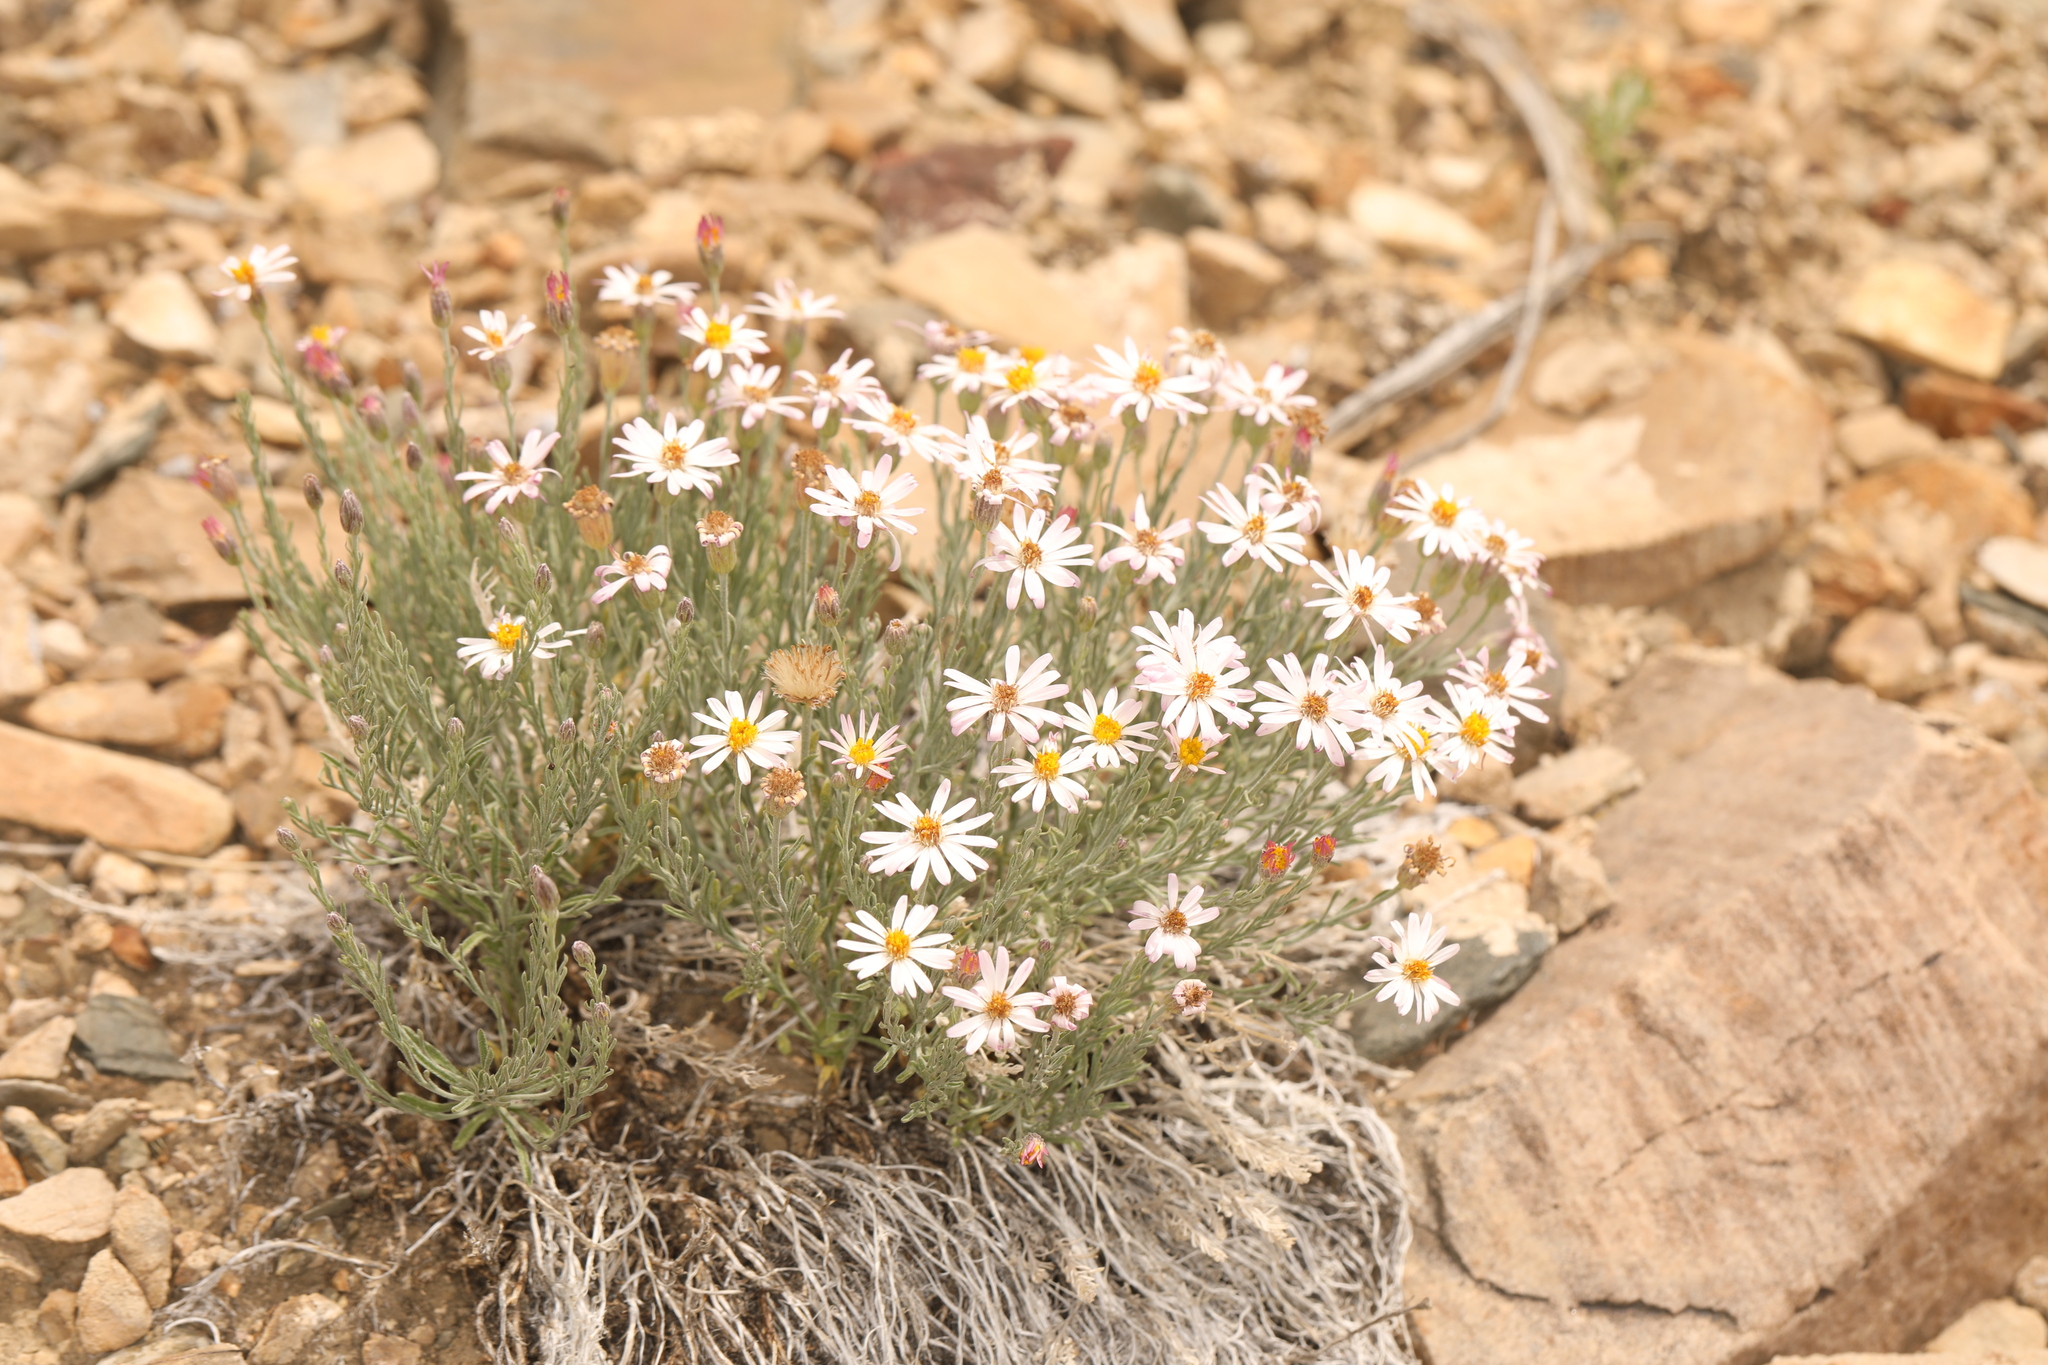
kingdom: Plantae
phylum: Tracheophyta
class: Magnoliopsida
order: Asterales
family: Asteraceae
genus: Chaetopappa
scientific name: Chaetopappa ericoides
